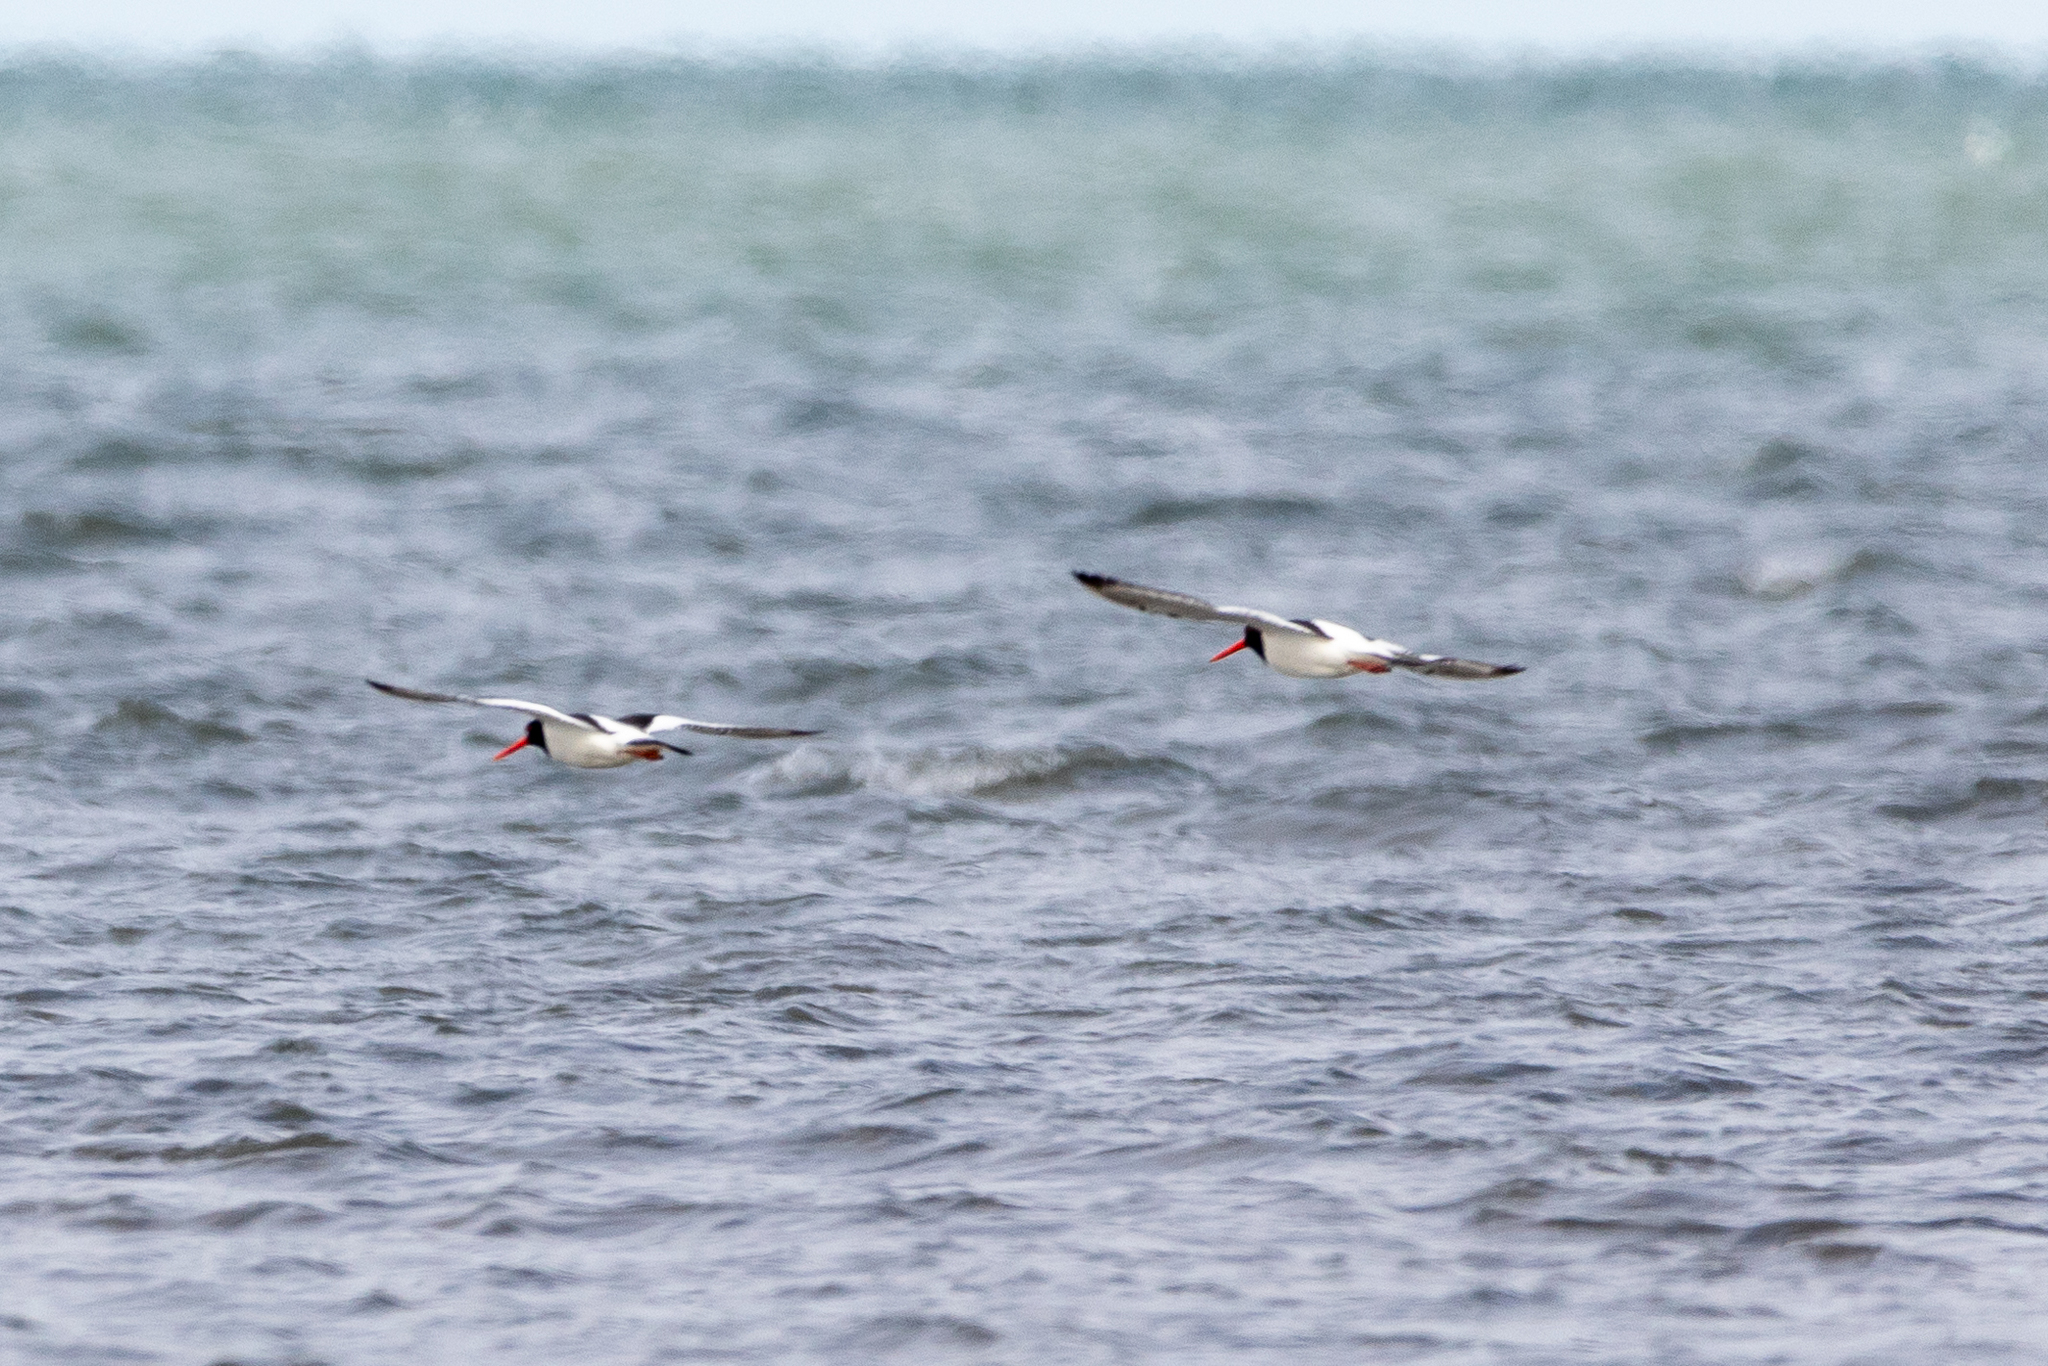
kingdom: Animalia
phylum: Chordata
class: Aves
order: Charadriiformes
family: Haematopodidae
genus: Haematopus
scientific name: Haematopus ostralegus
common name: Eurasian oystercatcher
